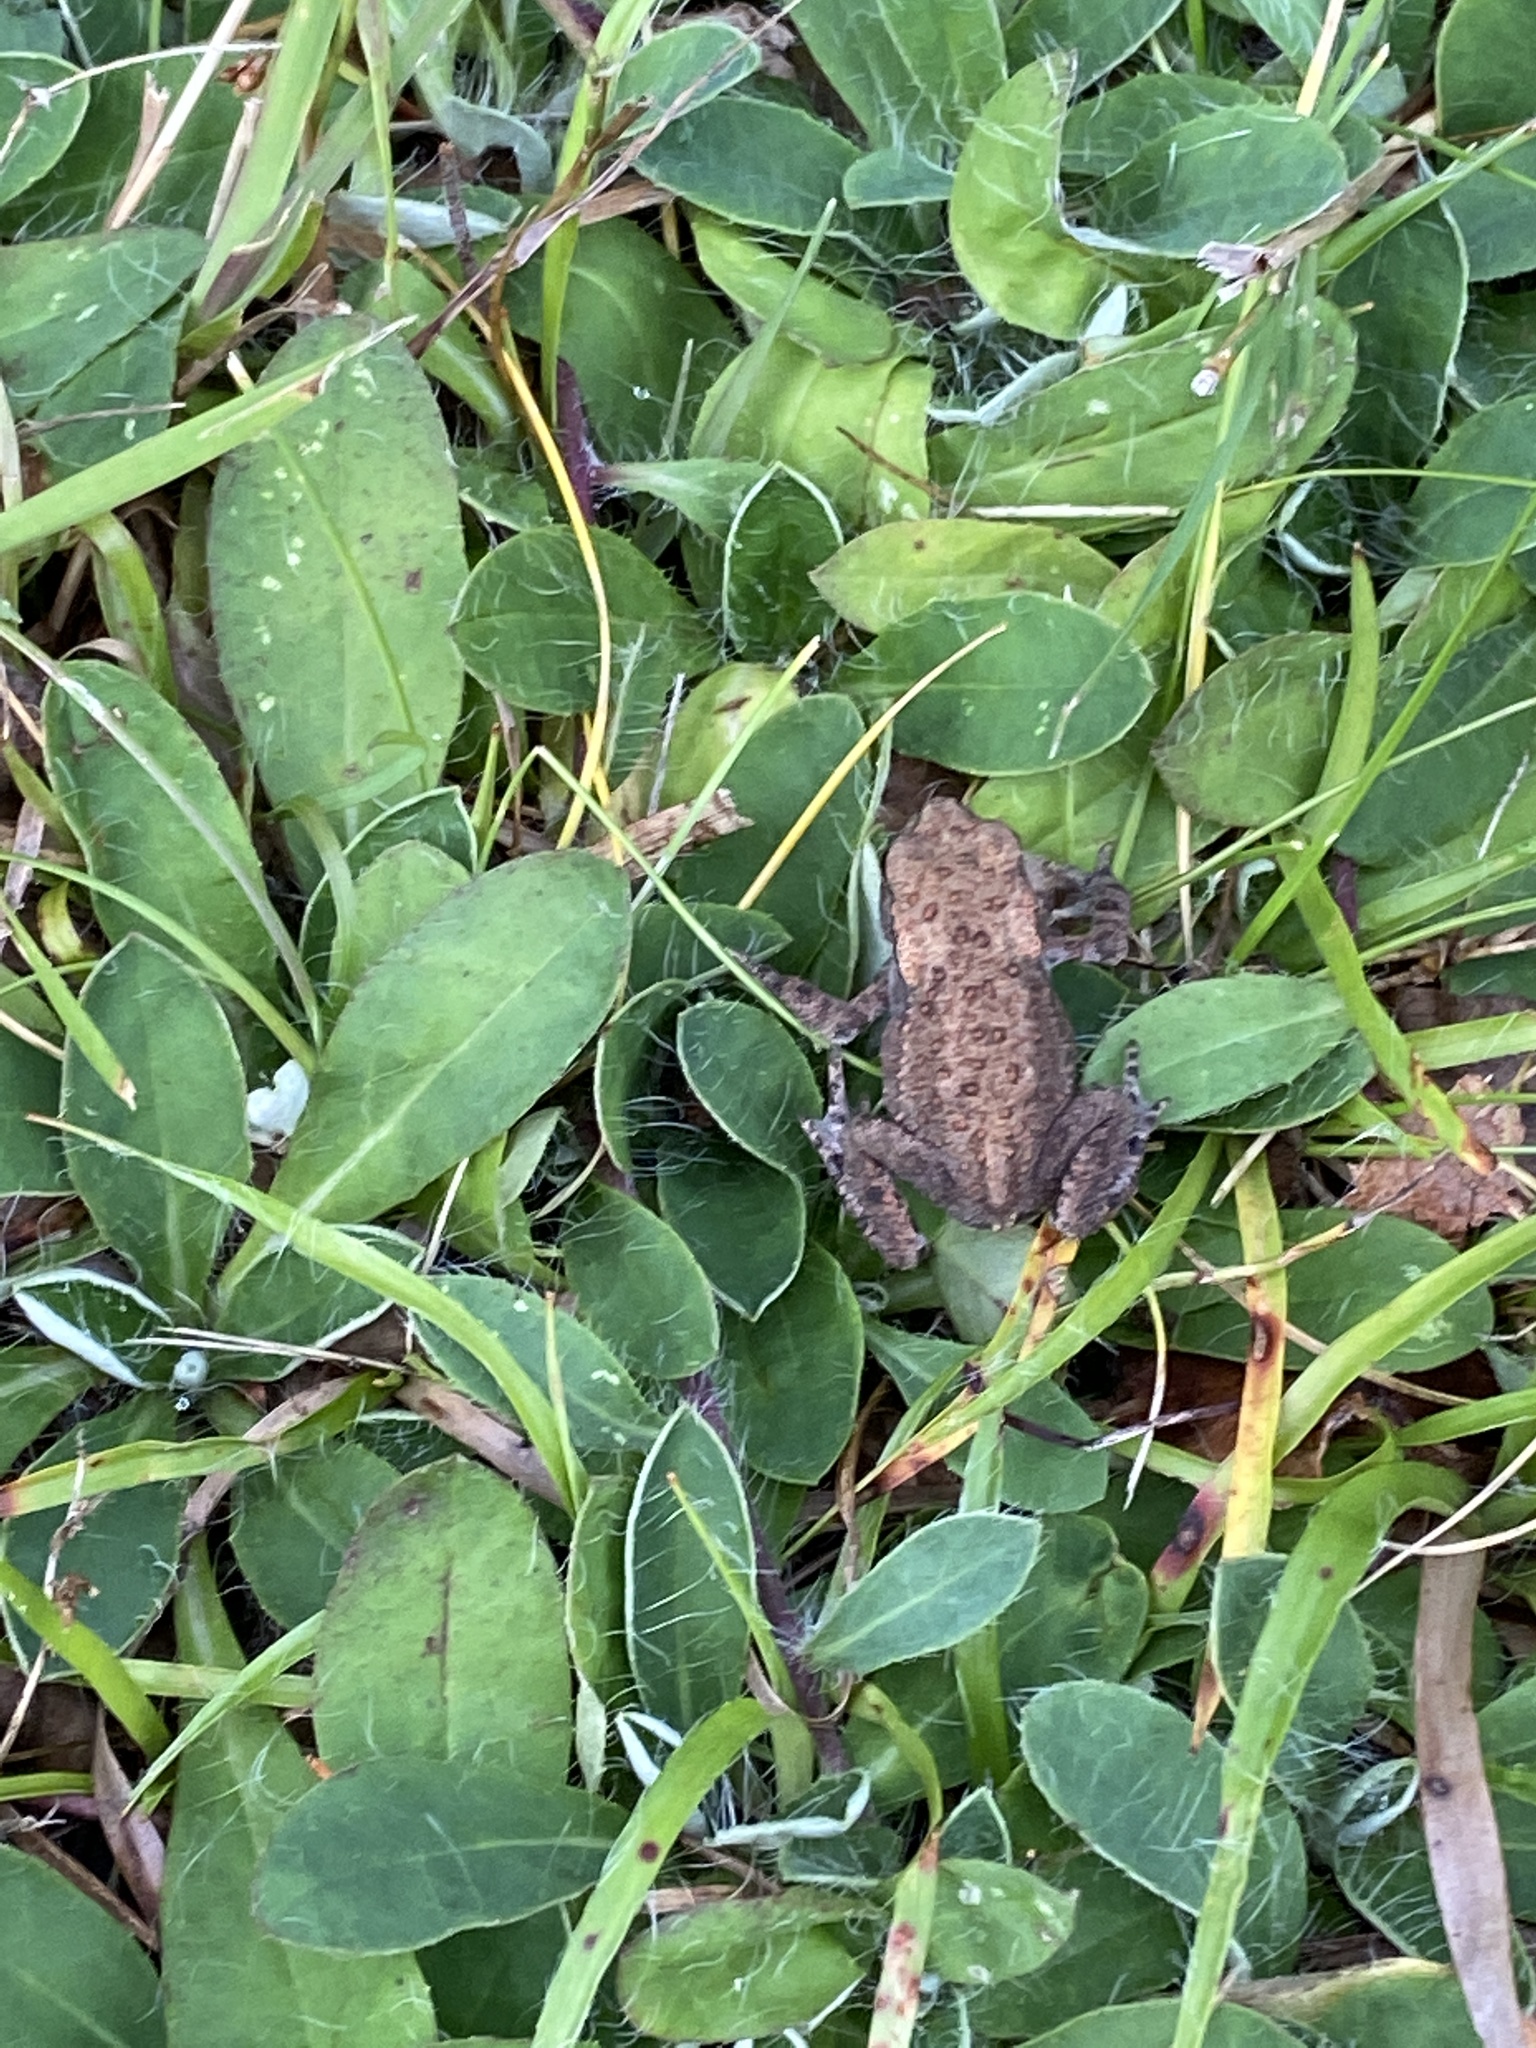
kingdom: Animalia
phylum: Chordata
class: Amphibia
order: Anura
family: Bufonidae
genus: Bufo
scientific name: Bufo bufo
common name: Common toad
